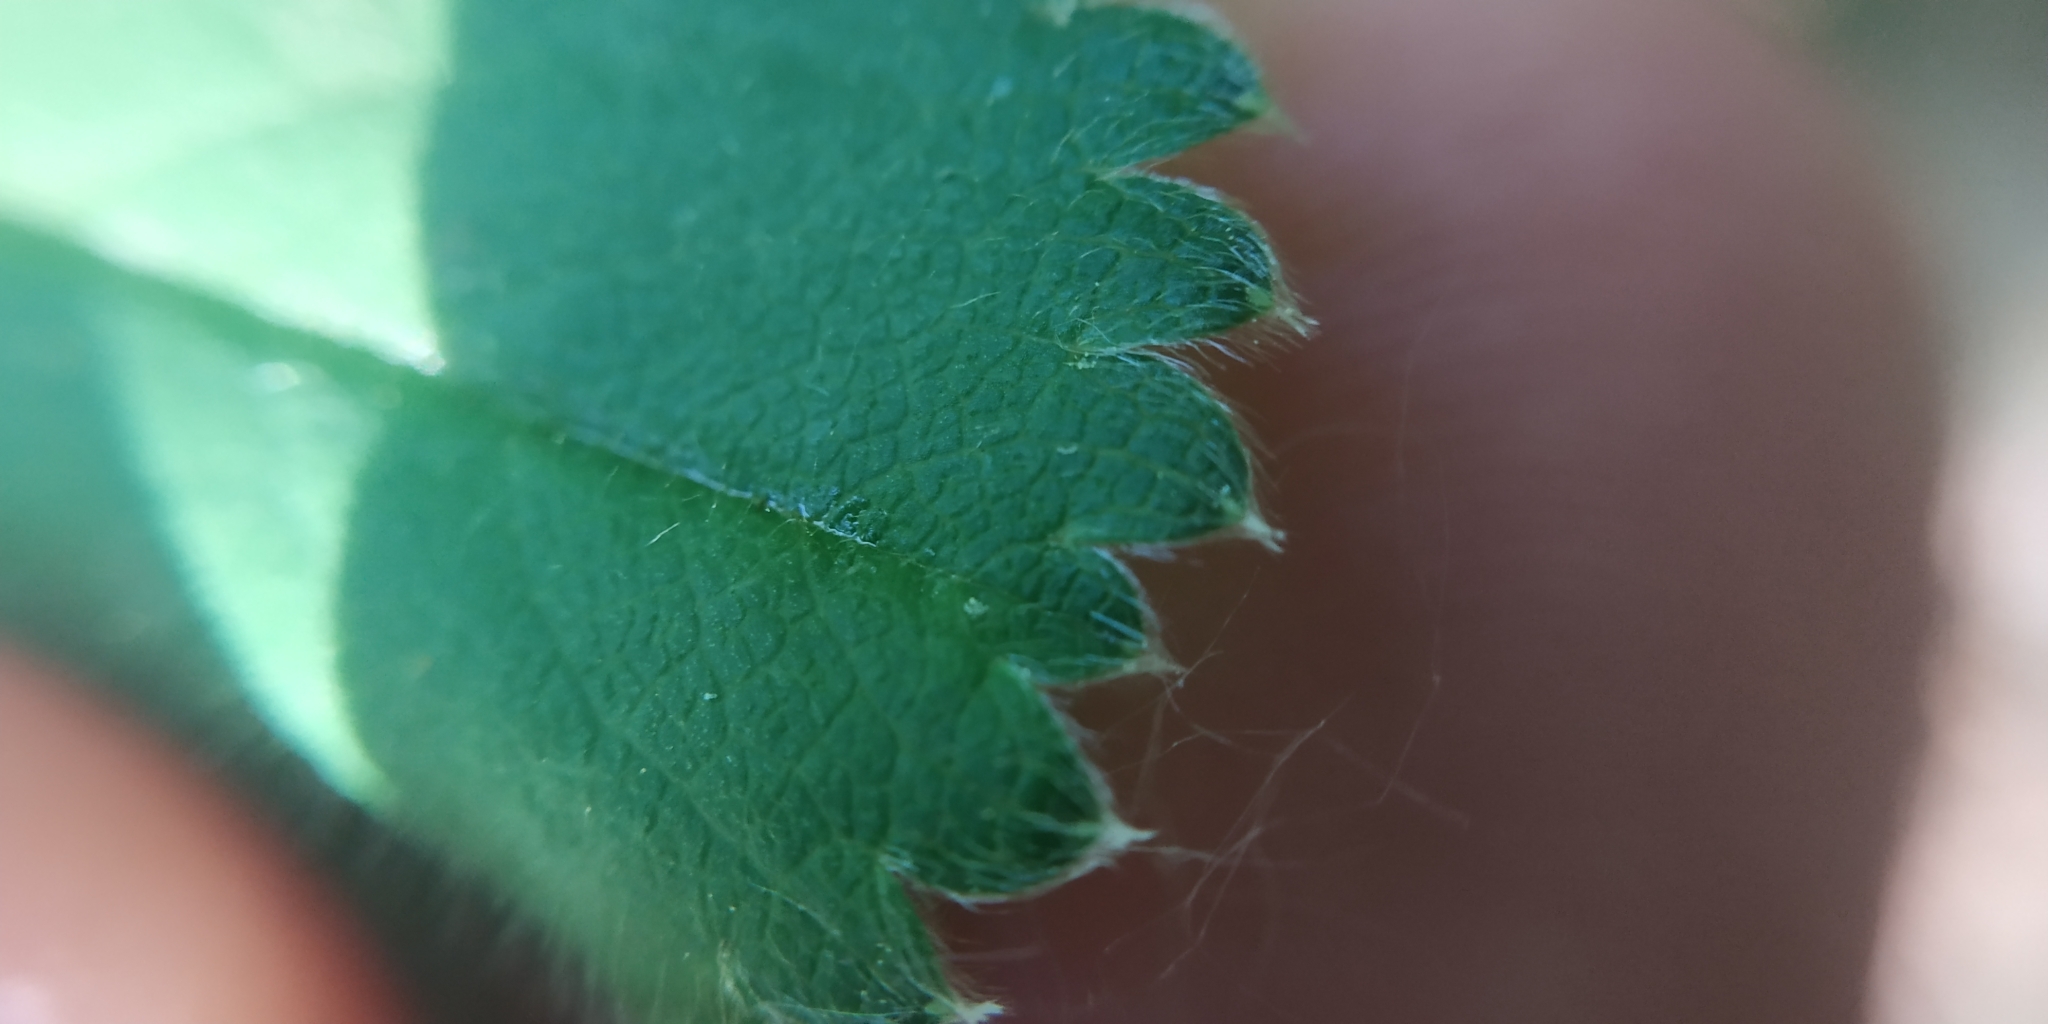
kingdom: Plantae
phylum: Tracheophyta
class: Magnoliopsida
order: Rosales
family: Rosaceae
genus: Alchemilla
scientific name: Alchemilla tubulosa
